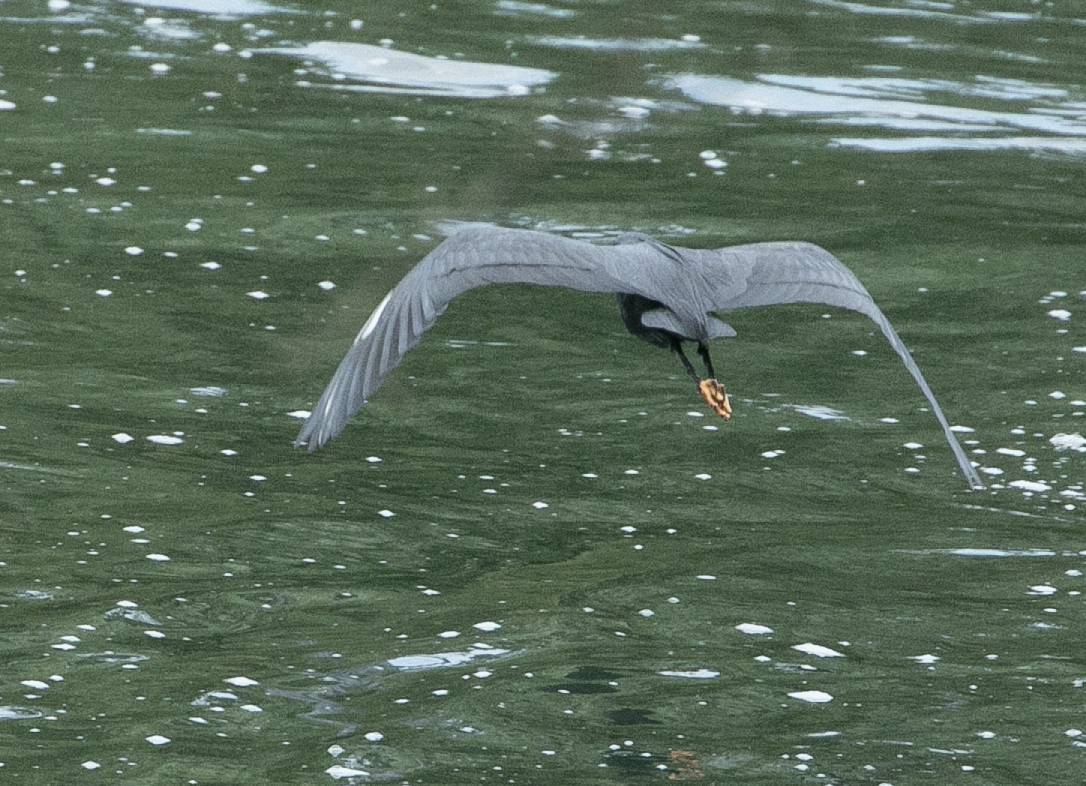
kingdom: Animalia
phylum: Chordata
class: Aves
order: Pelecaniformes
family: Ardeidae
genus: Egretta
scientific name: Egretta gularis
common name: Western reef-heron
